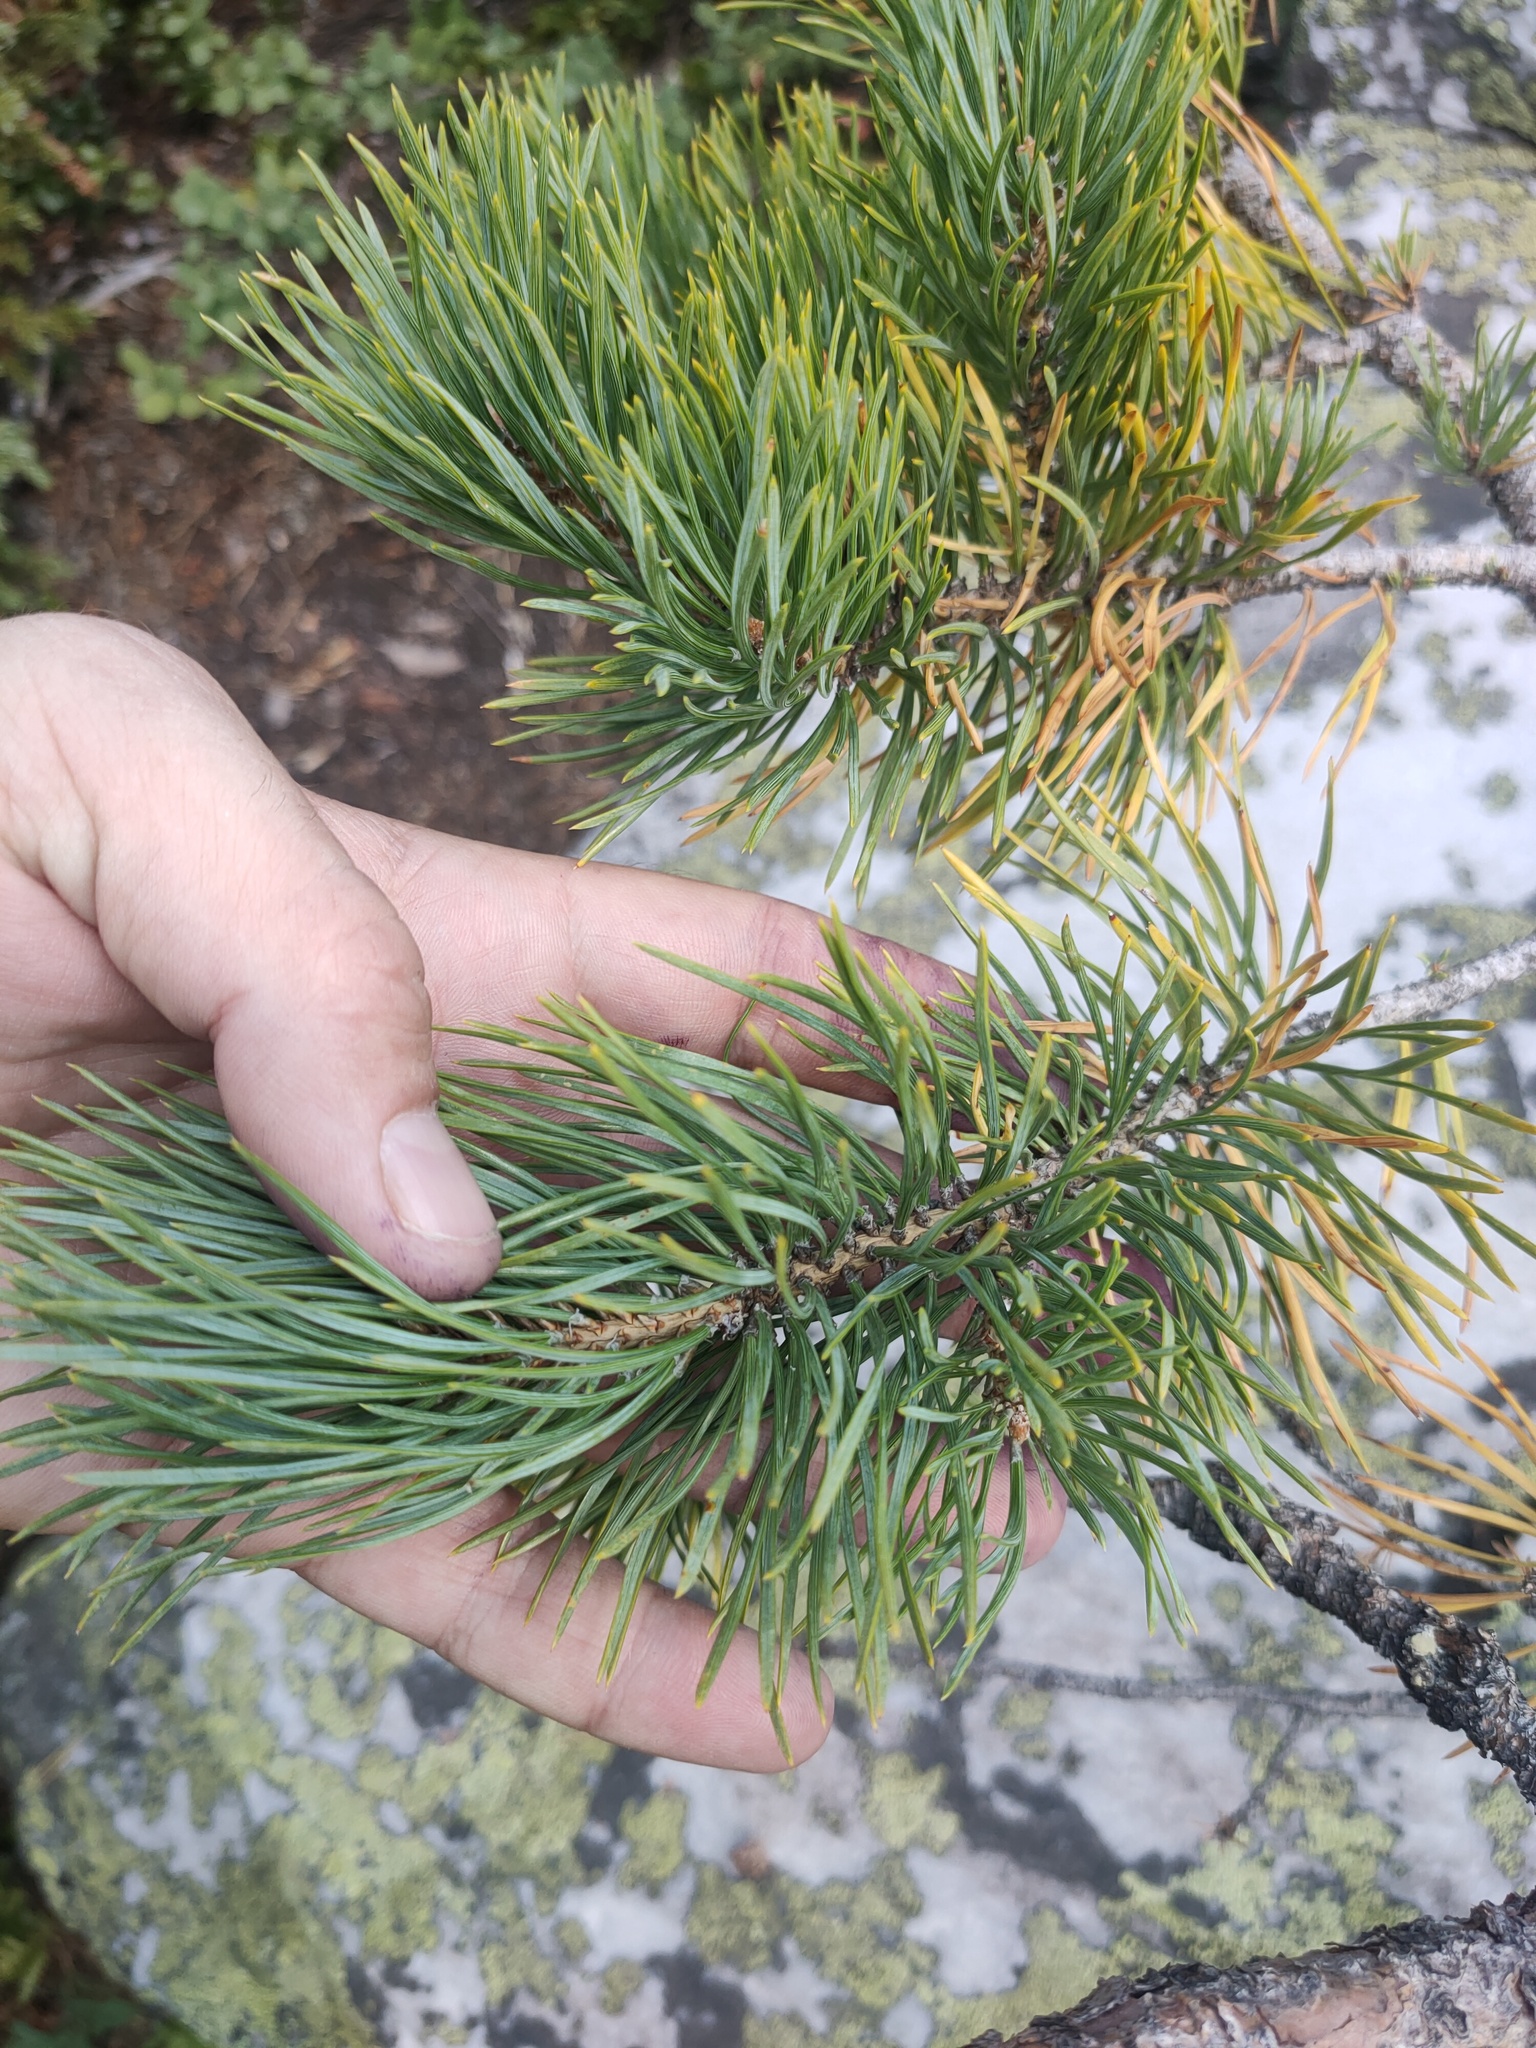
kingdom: Plantae
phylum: Tracheophyta
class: Pinopsida
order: Pinales
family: Pinaceae
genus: Pinus
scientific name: Pinus sylvestris
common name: Scots pine
